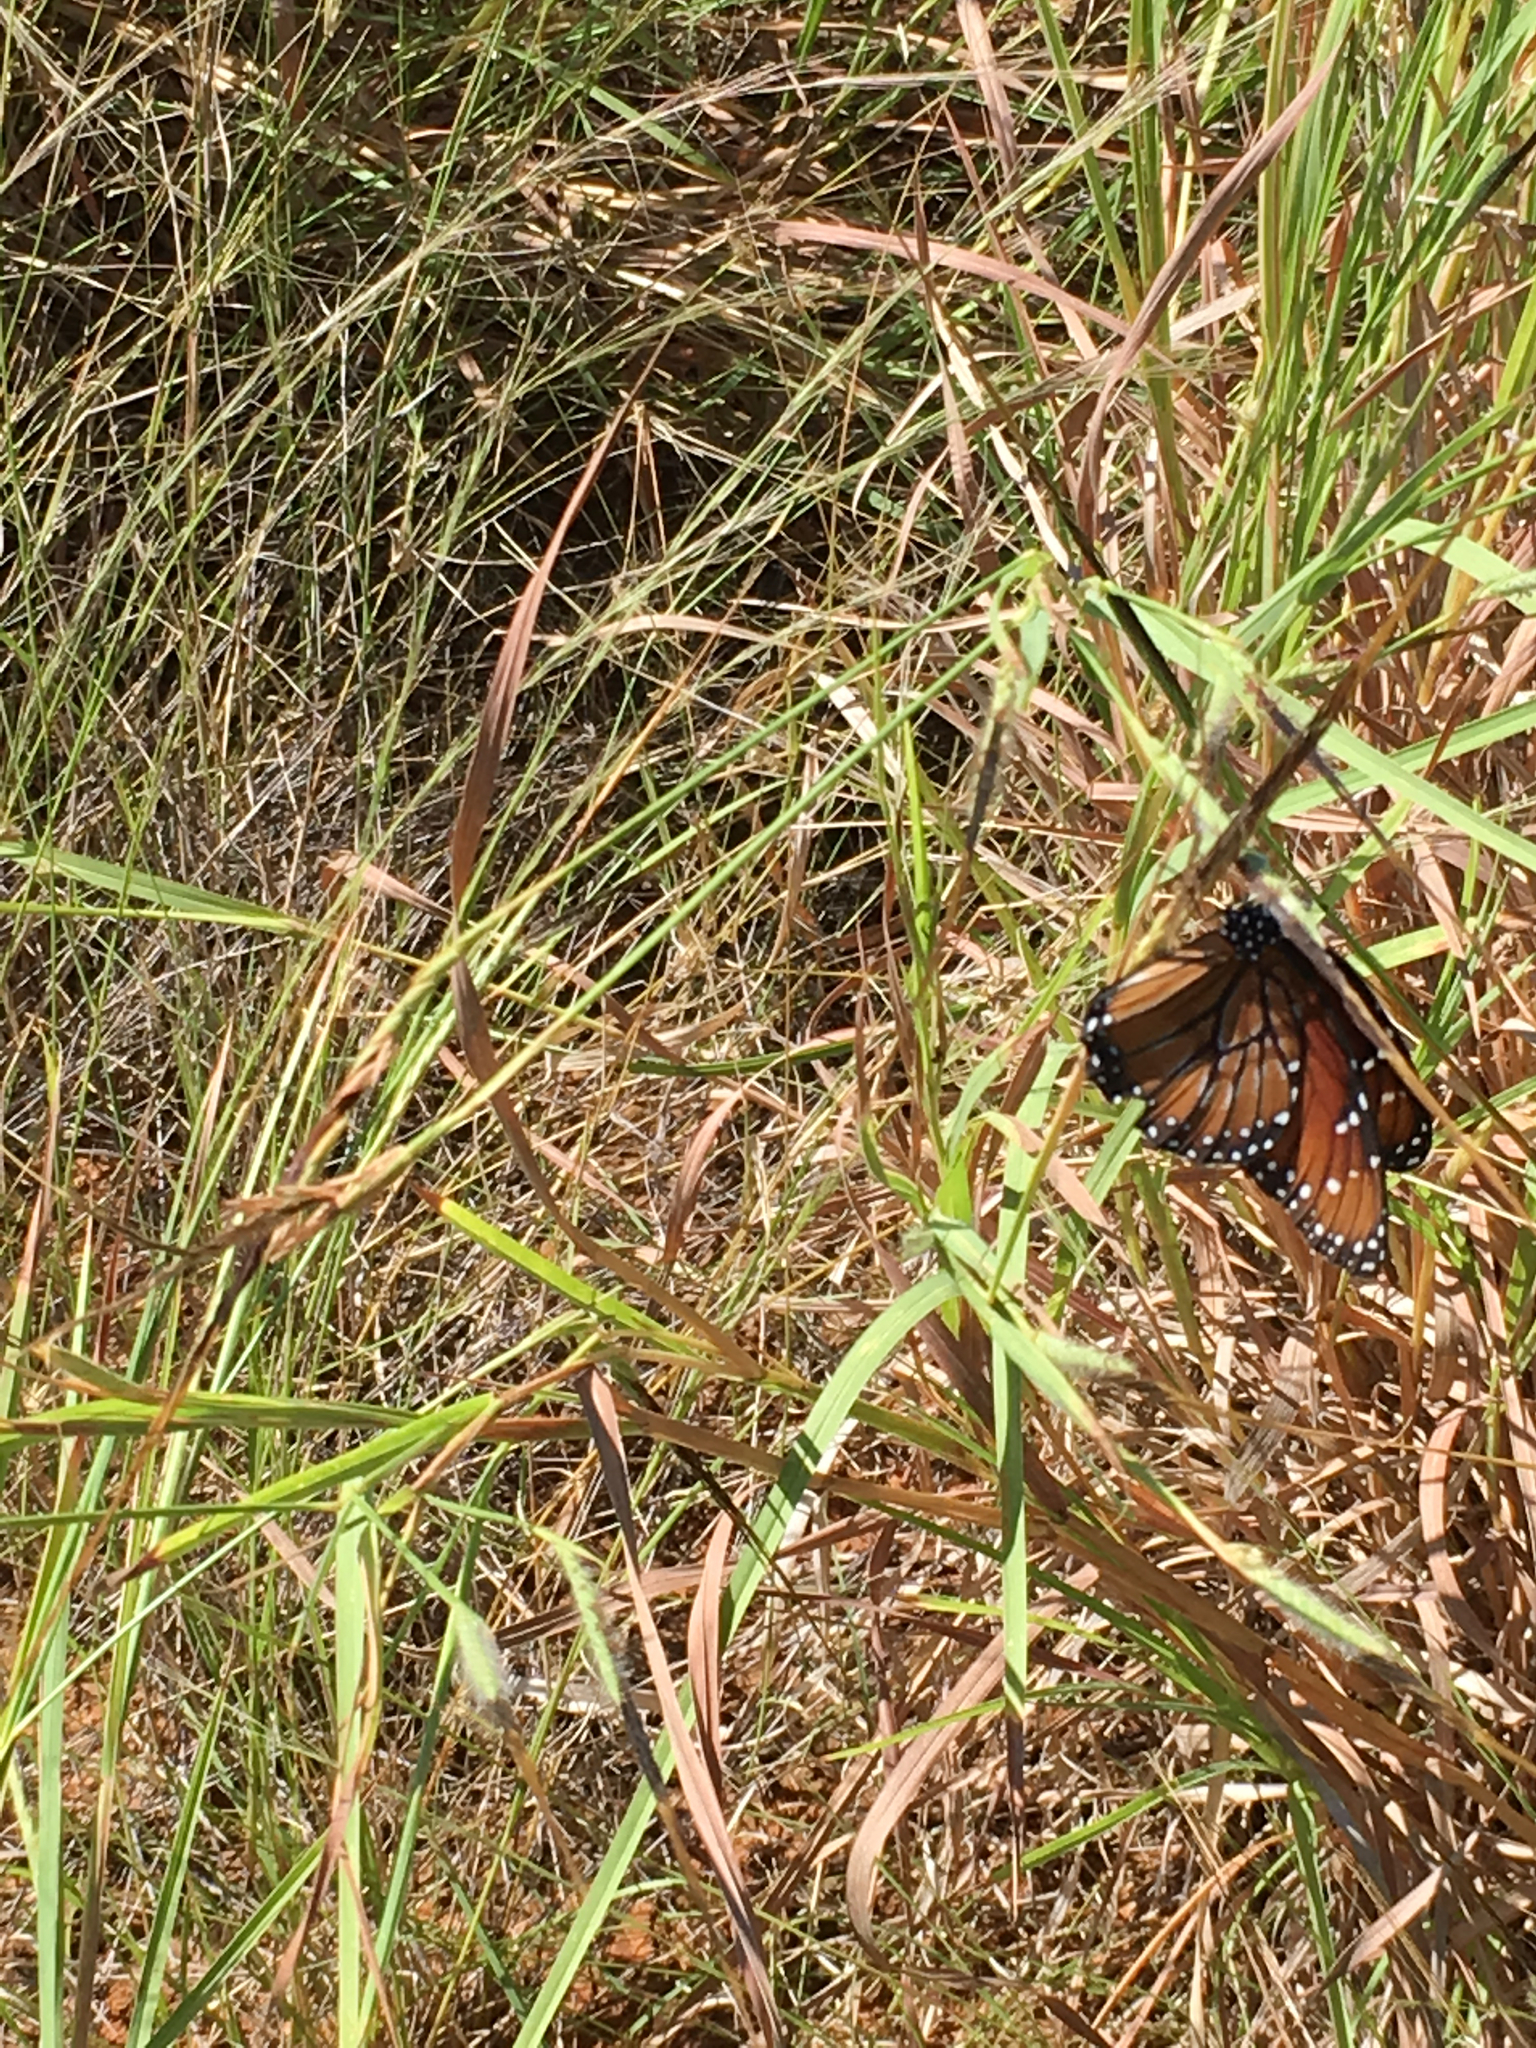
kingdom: Animalia
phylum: Arthropoda
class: Insecta
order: Lepidoptera
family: Nymphalidae
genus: Danaus
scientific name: Danaus eresimus
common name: Soldier
